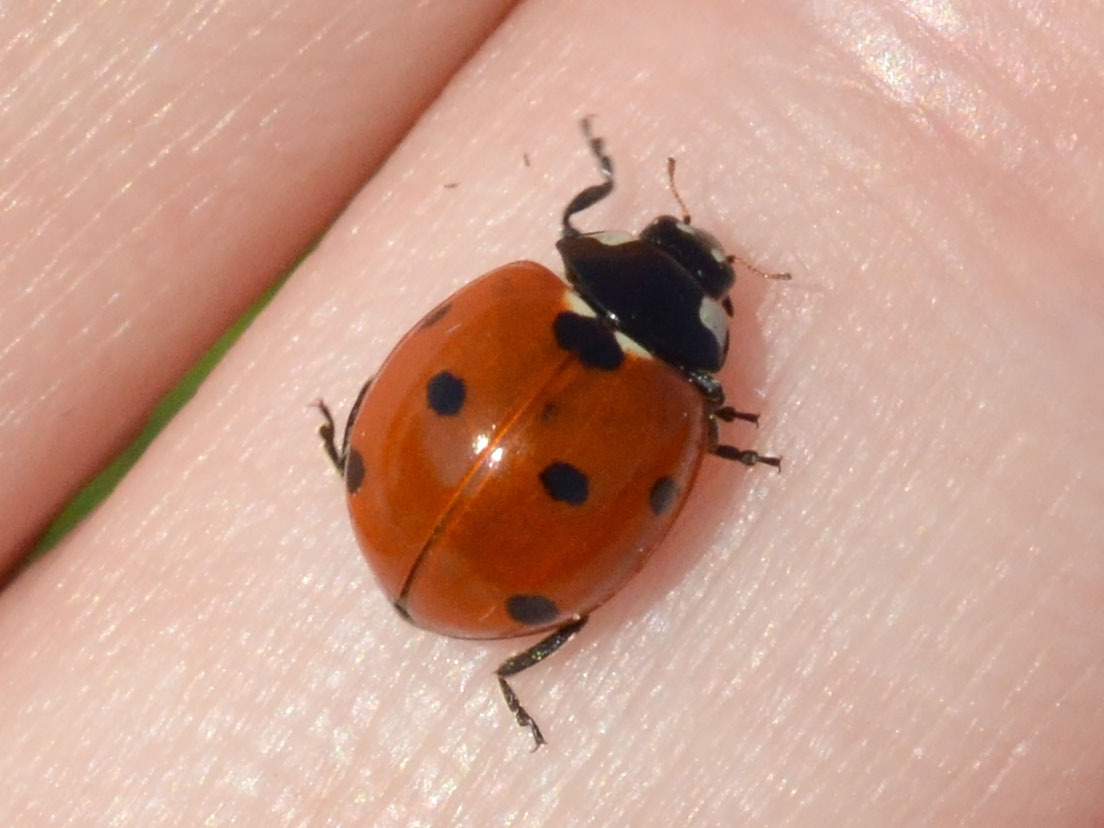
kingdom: Animalia
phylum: Arthropoda
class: Insecta
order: Coleoptera
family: Coccinellidae
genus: Coccinella
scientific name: Coccinella septempunctata
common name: Sevenspotted lady beetle
